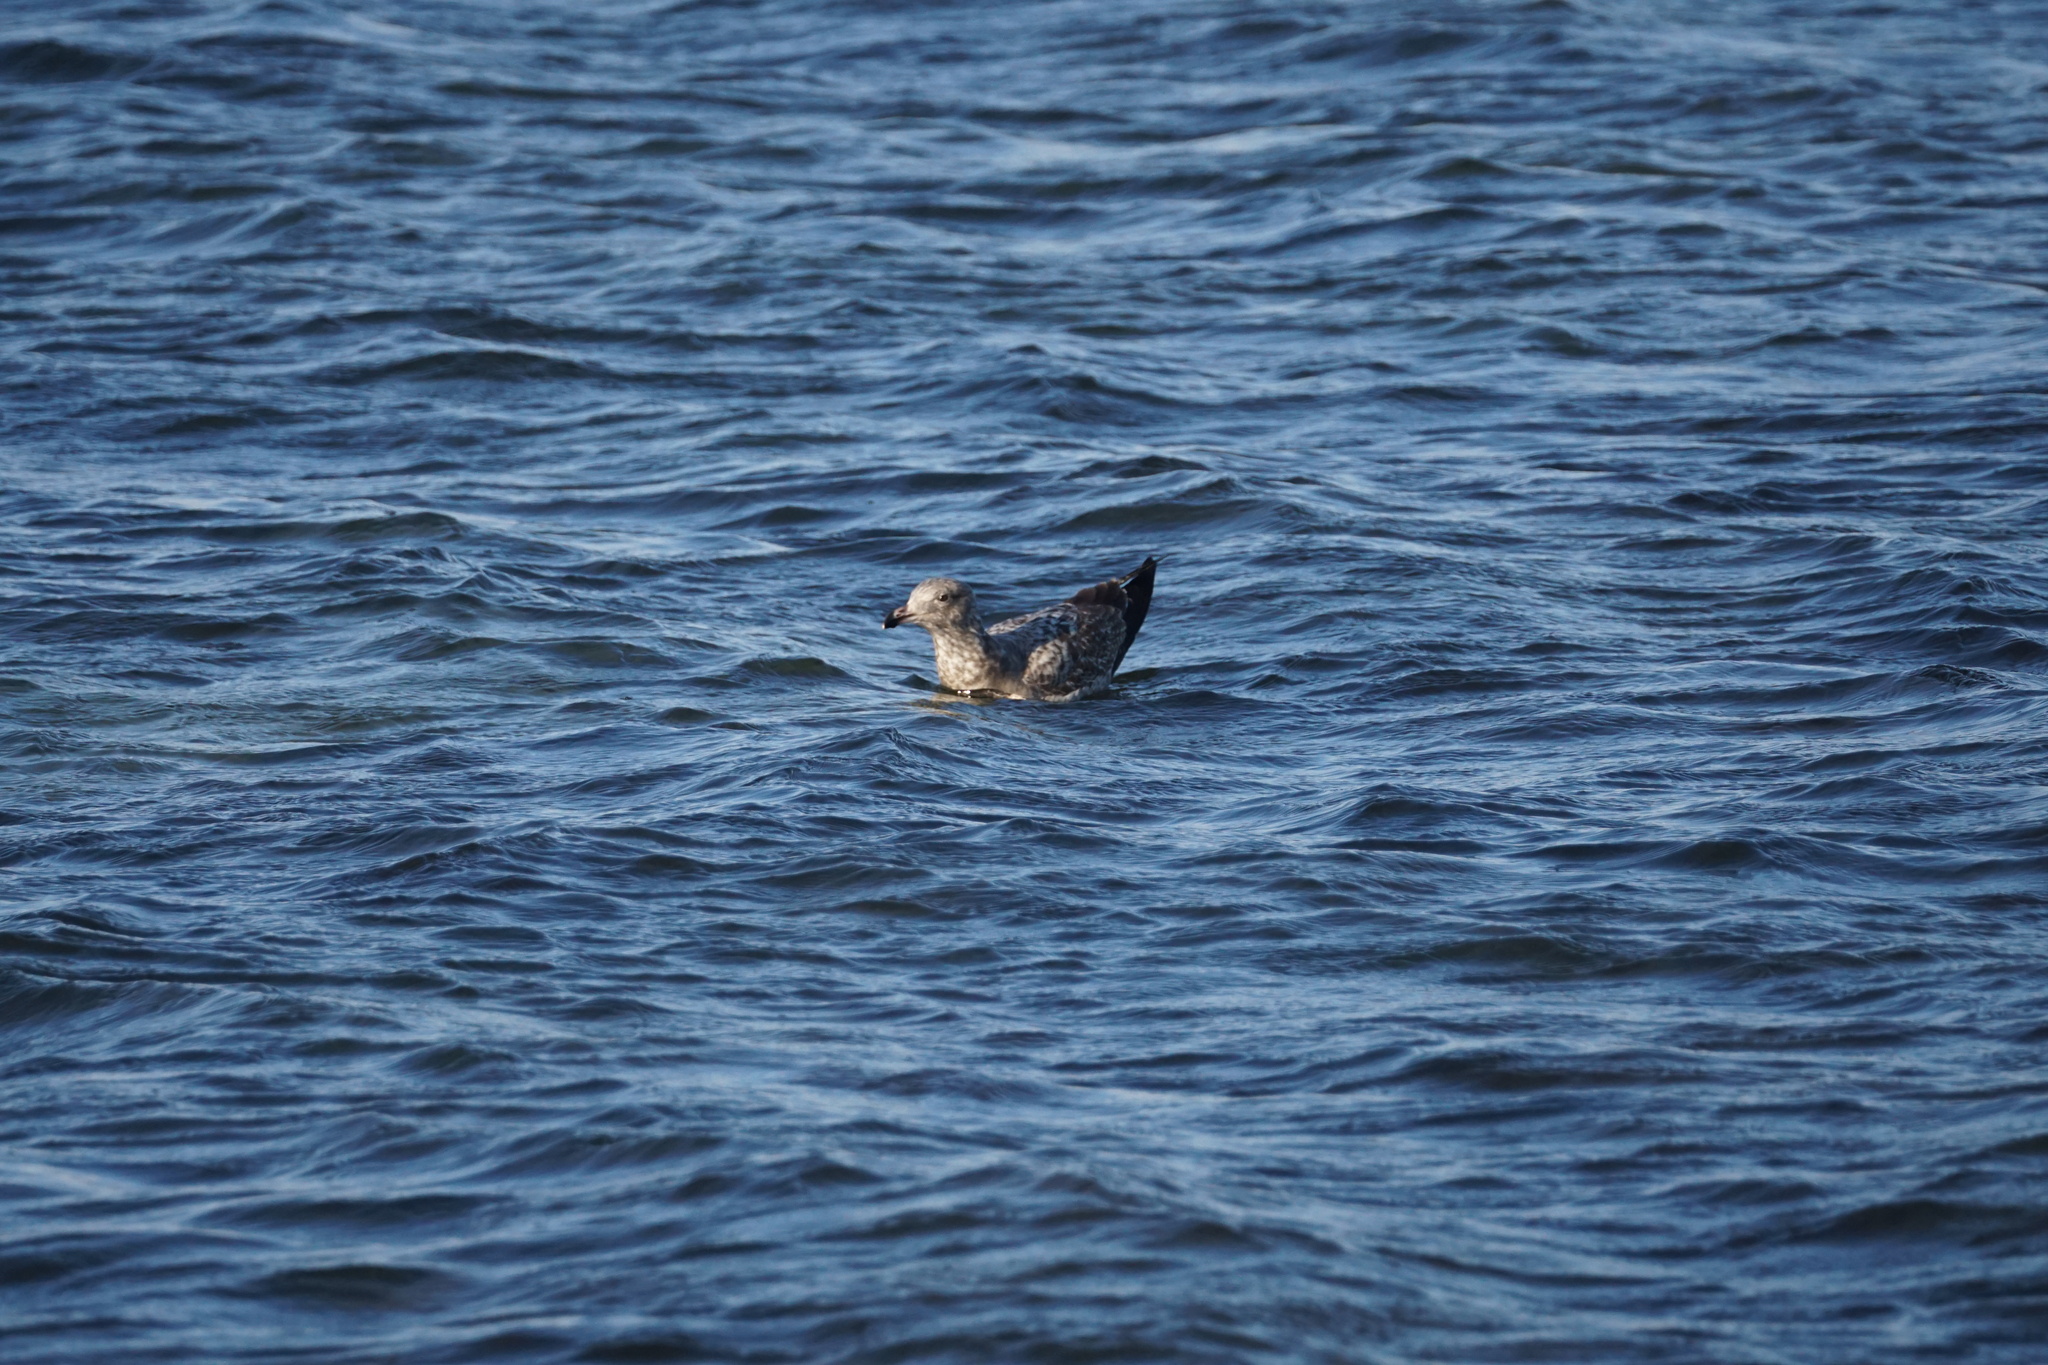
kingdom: Animalia
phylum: Chordata
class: Aves
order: Charadriiformes
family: Laridae
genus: Larus
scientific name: Larus argentatus
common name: Herring gull
